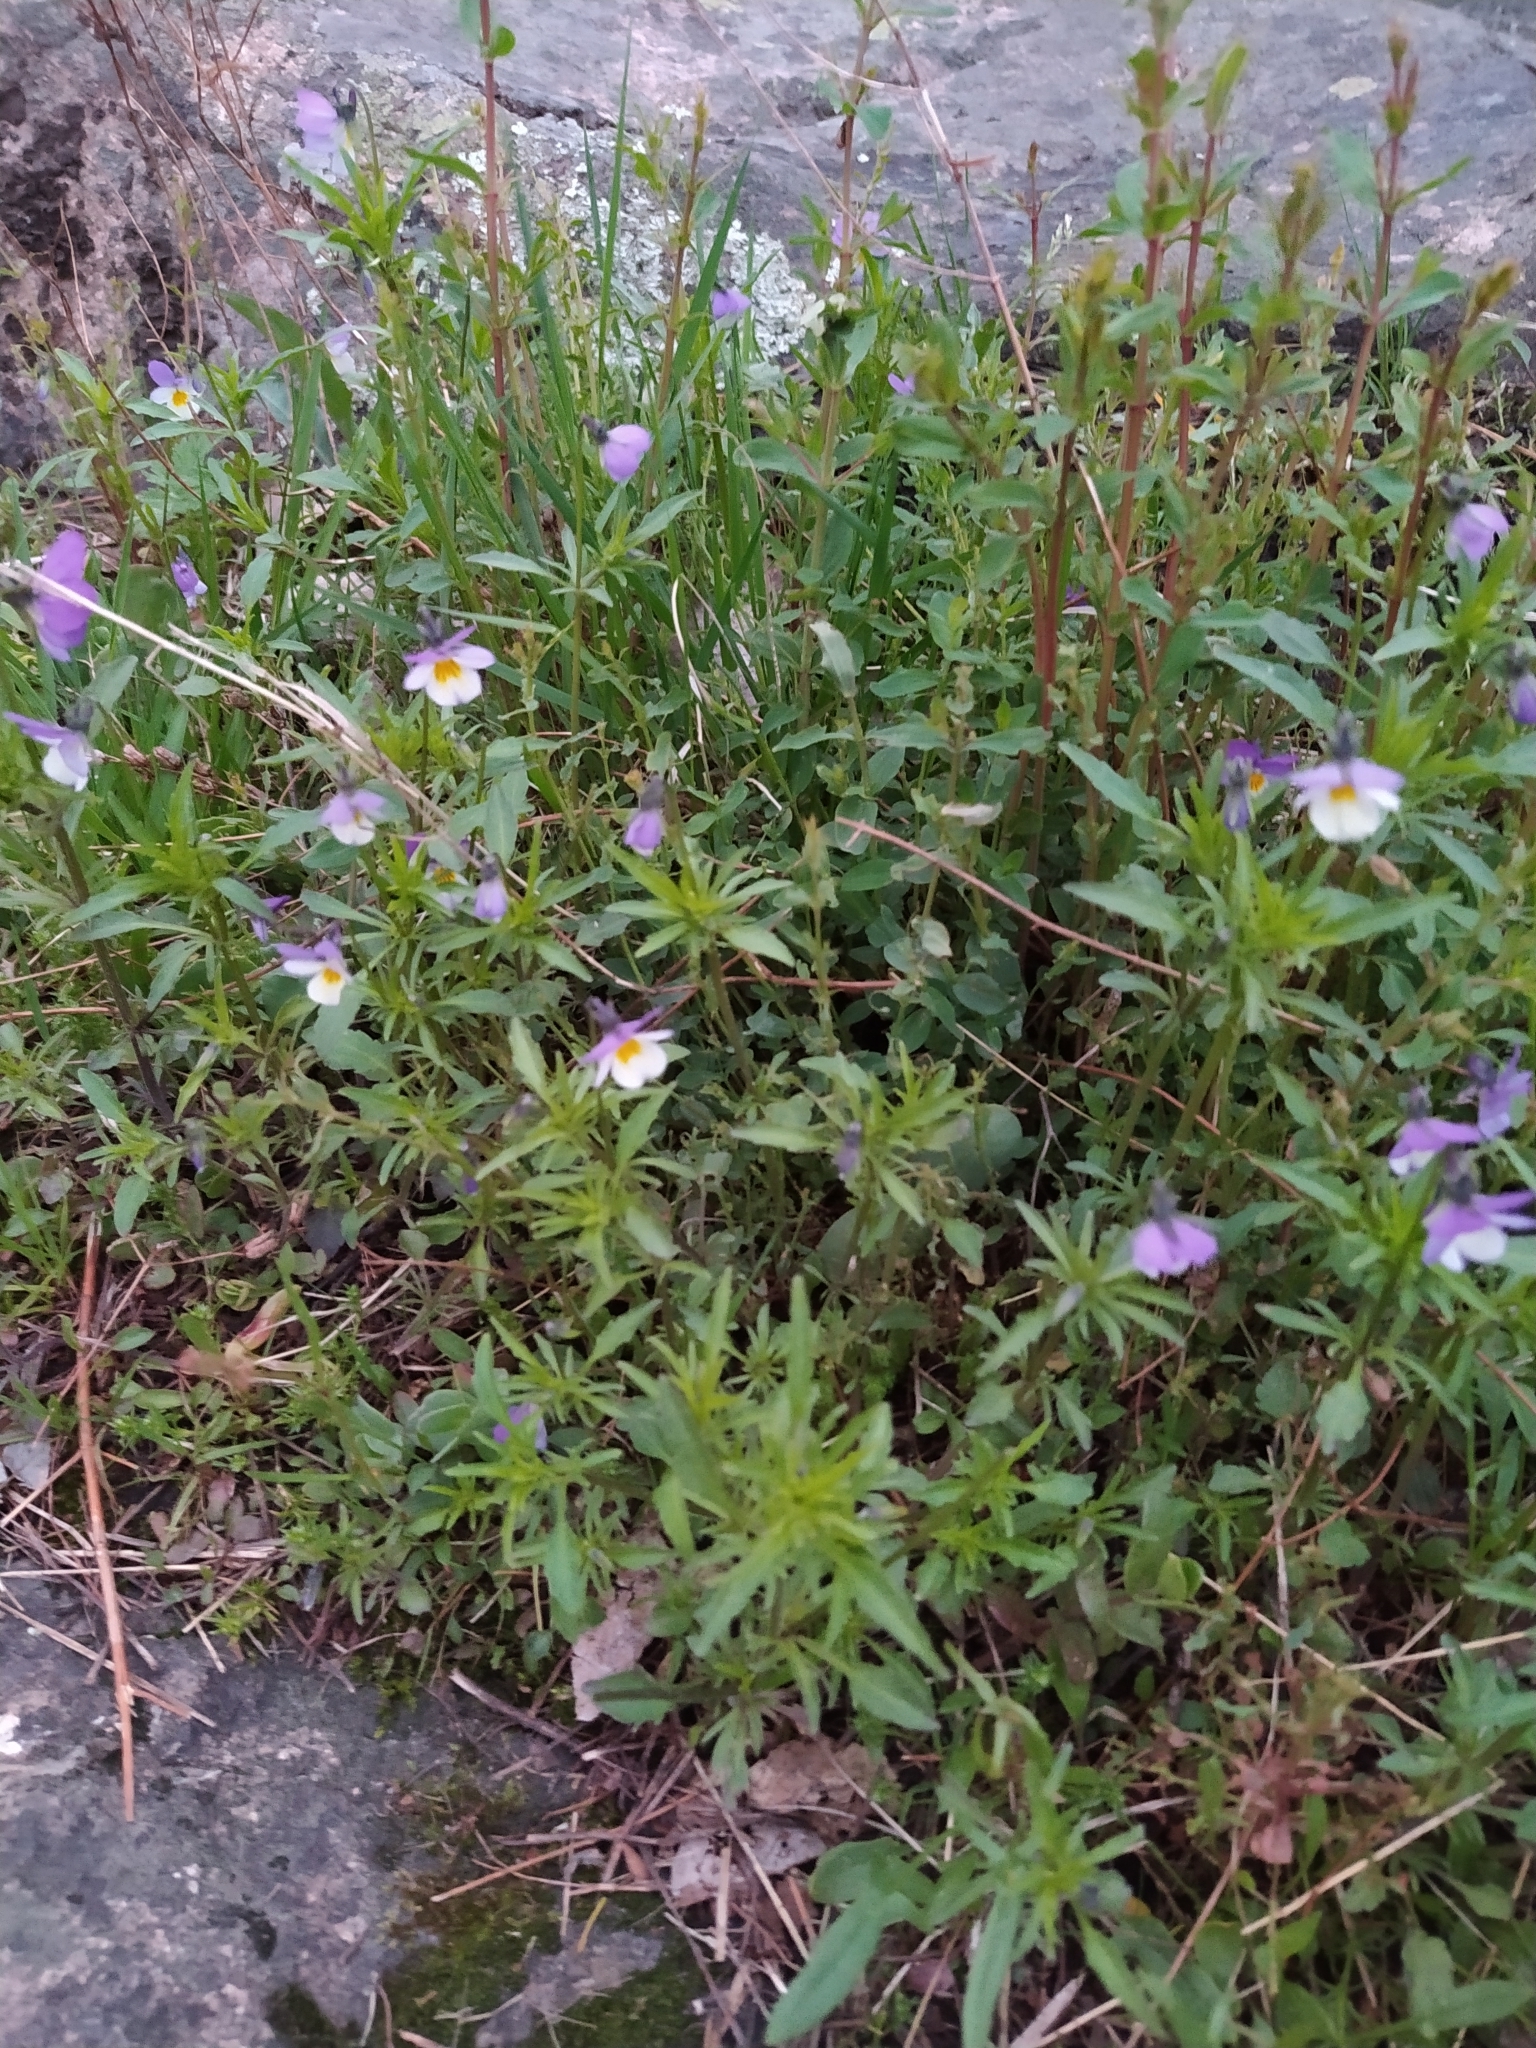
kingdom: Plantae
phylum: Tracheophyta
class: Magnoliopsida
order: Malpighiales
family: Violaceae
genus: Viola
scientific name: Viola tricolor
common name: Pansy
